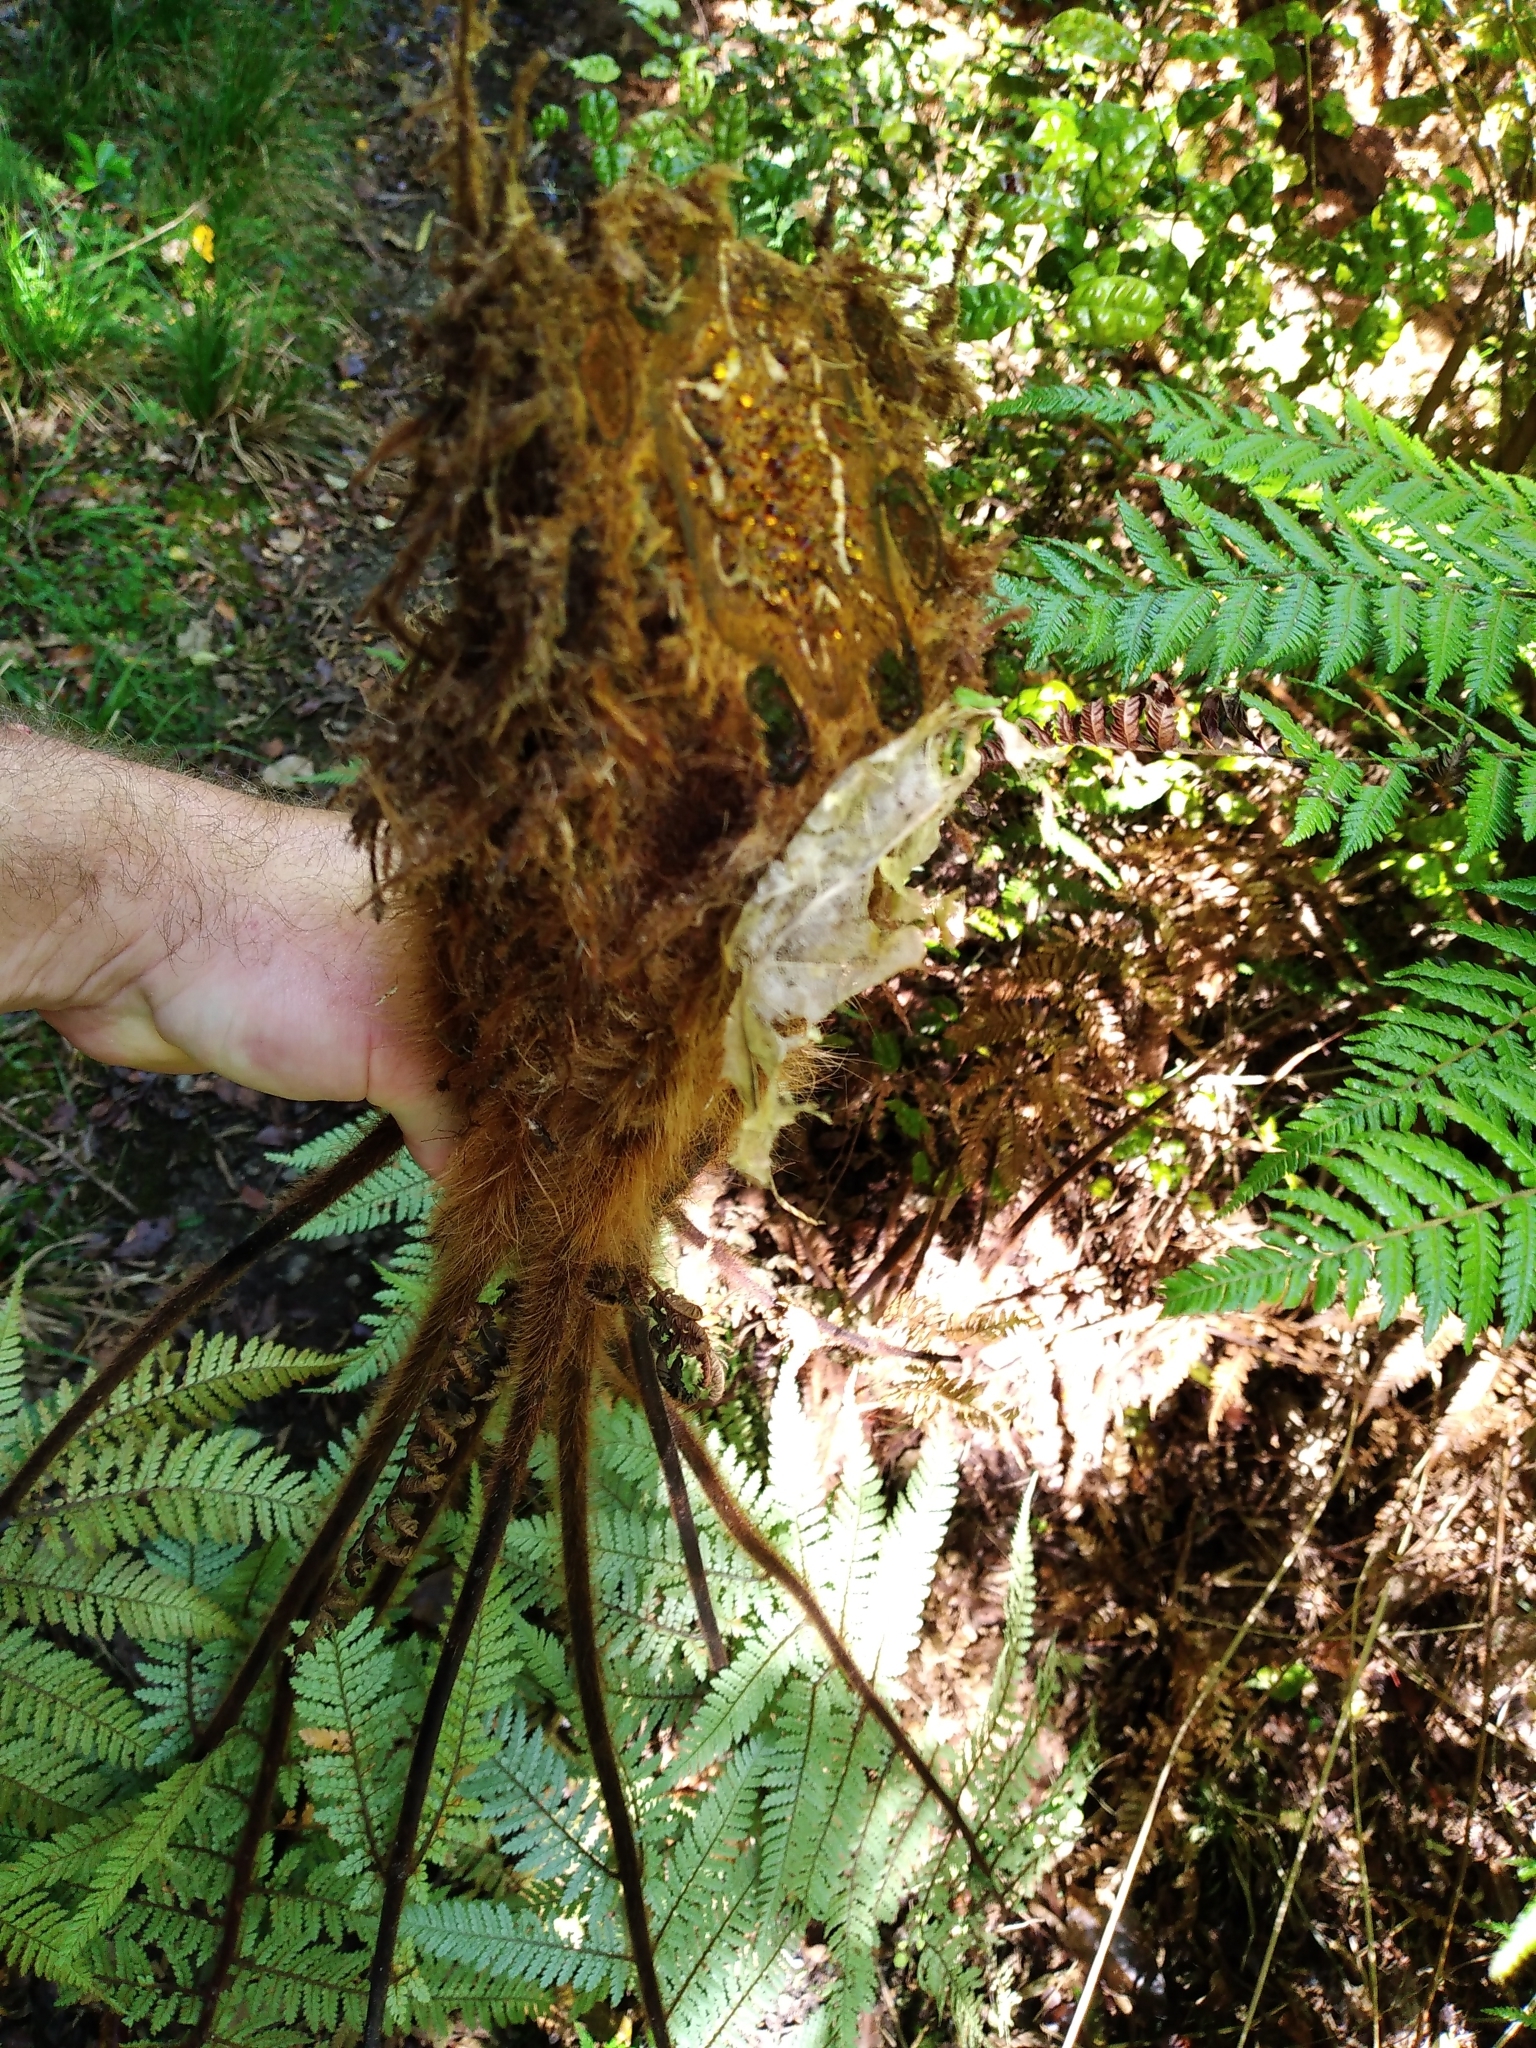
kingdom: Plantae
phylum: Tracheophyta
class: Polypodiopsida
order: Cyatheales
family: Dicksoniaceae
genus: Dicksonia
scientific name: Dicksonia squarrosa
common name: Hard treefern
